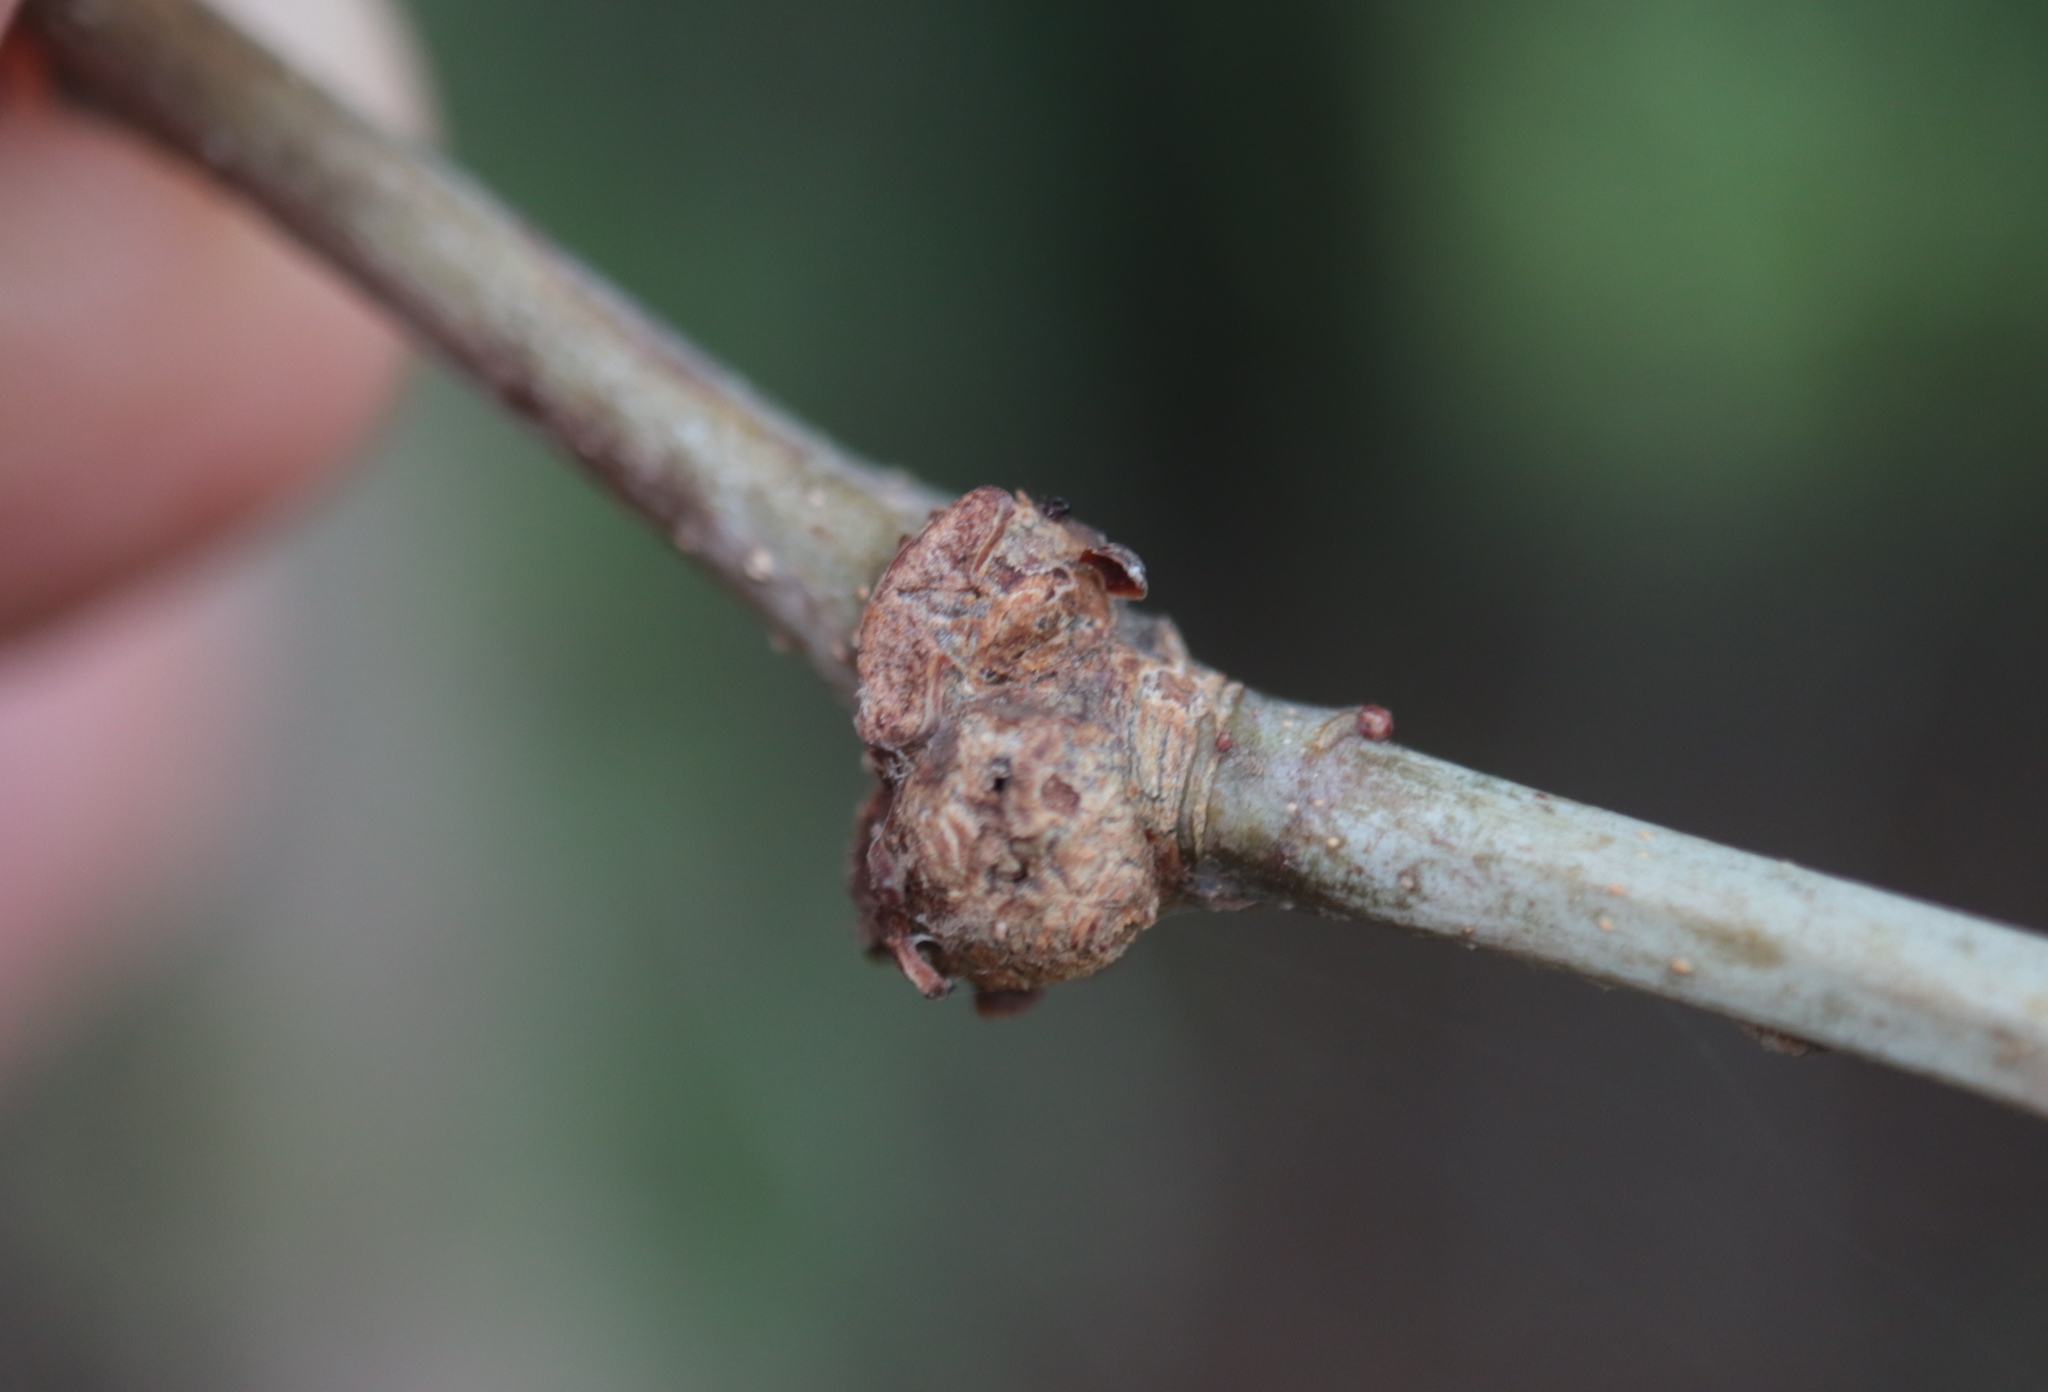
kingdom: Animalia
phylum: Arthropoda
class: Insecta
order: Hymenoptera
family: Cynipidae
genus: Loxaulus
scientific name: Loxaulus
